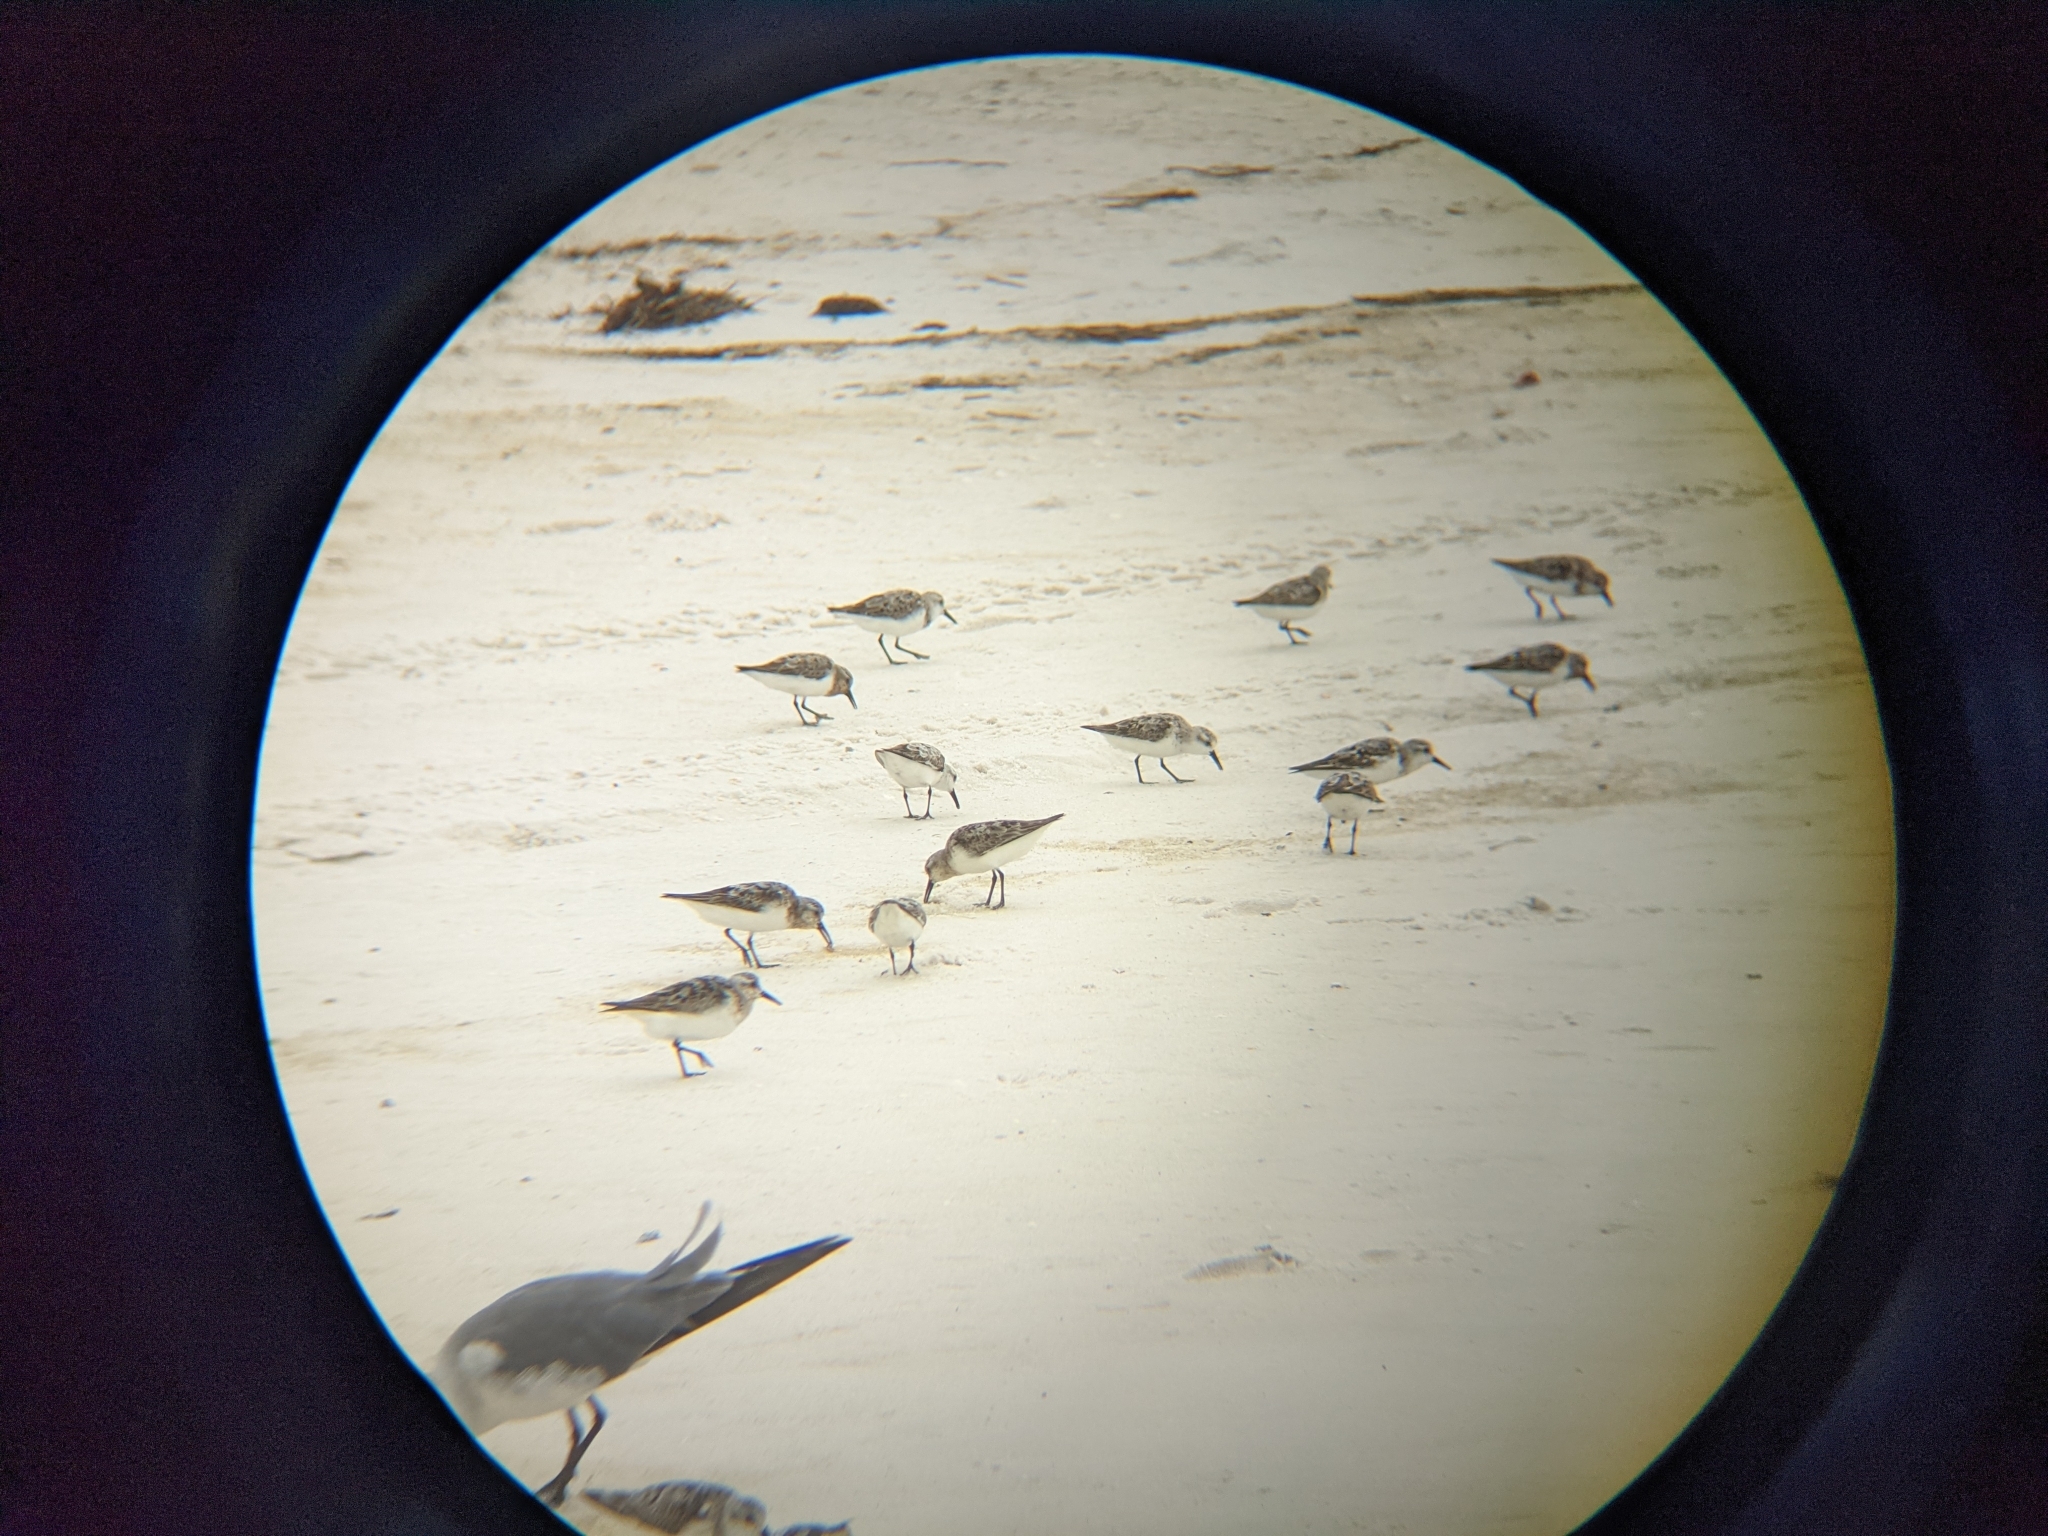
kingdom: Animalia
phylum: Chordata
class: Aves
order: Charadriiformes
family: Scolopacidae
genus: Calidris
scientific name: Calidris alba
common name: Sanderling
